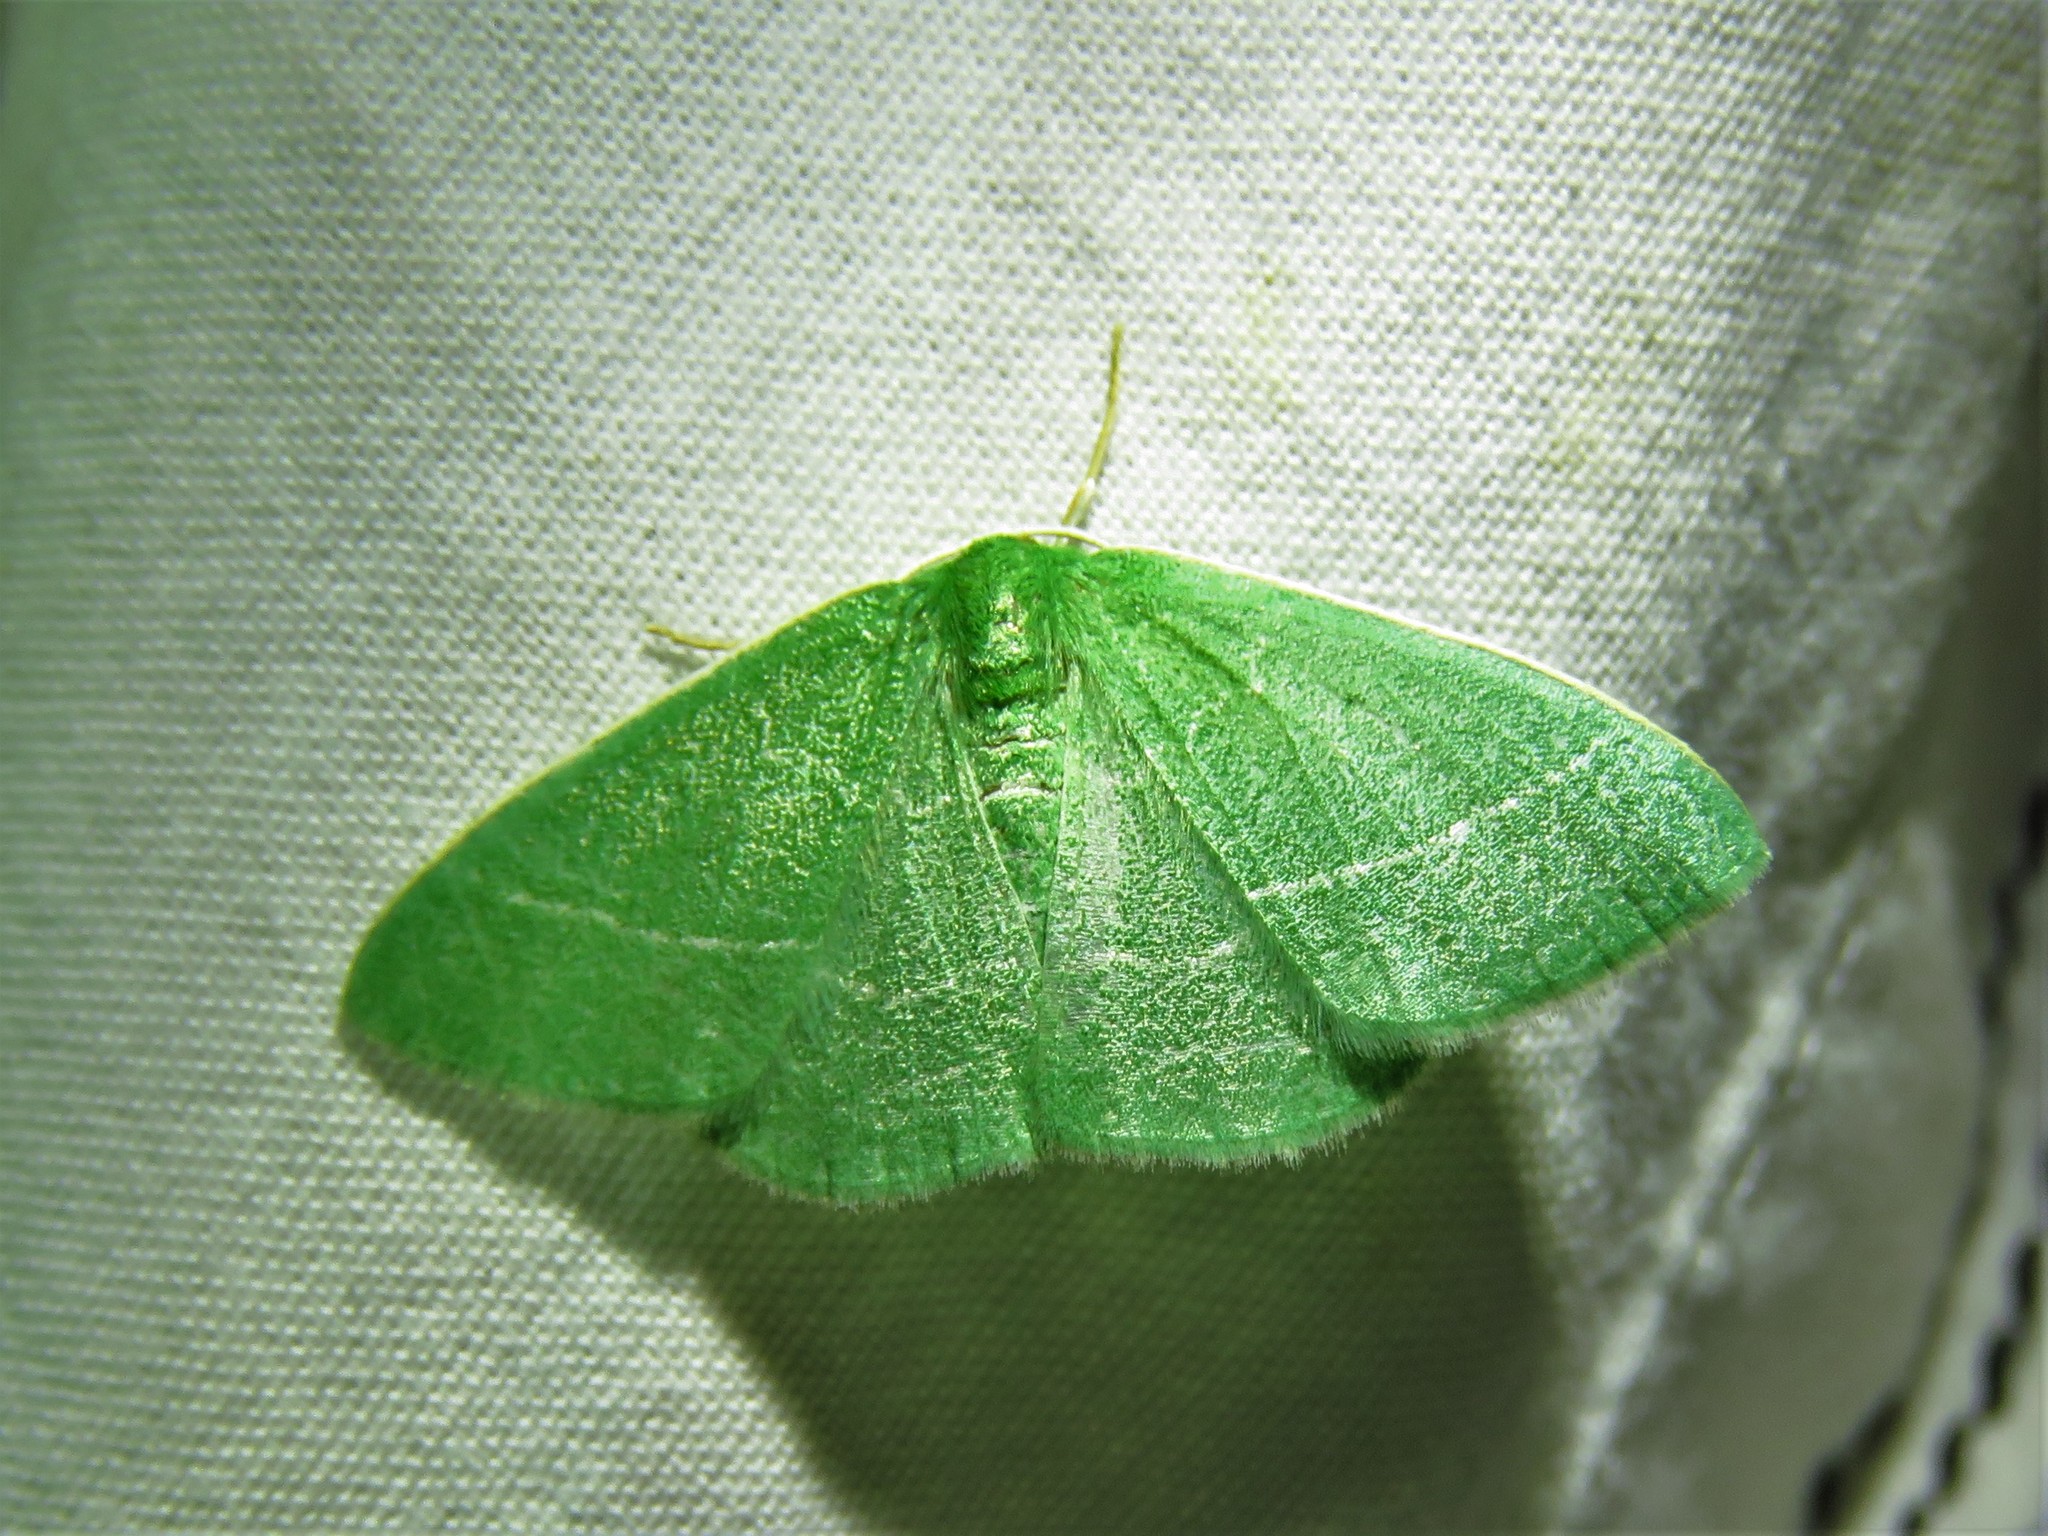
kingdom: Animalia
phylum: Arthropoda
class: Insecta
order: Lepidoptera
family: Geometridae
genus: Nemoria
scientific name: Nemoria zygotaria
